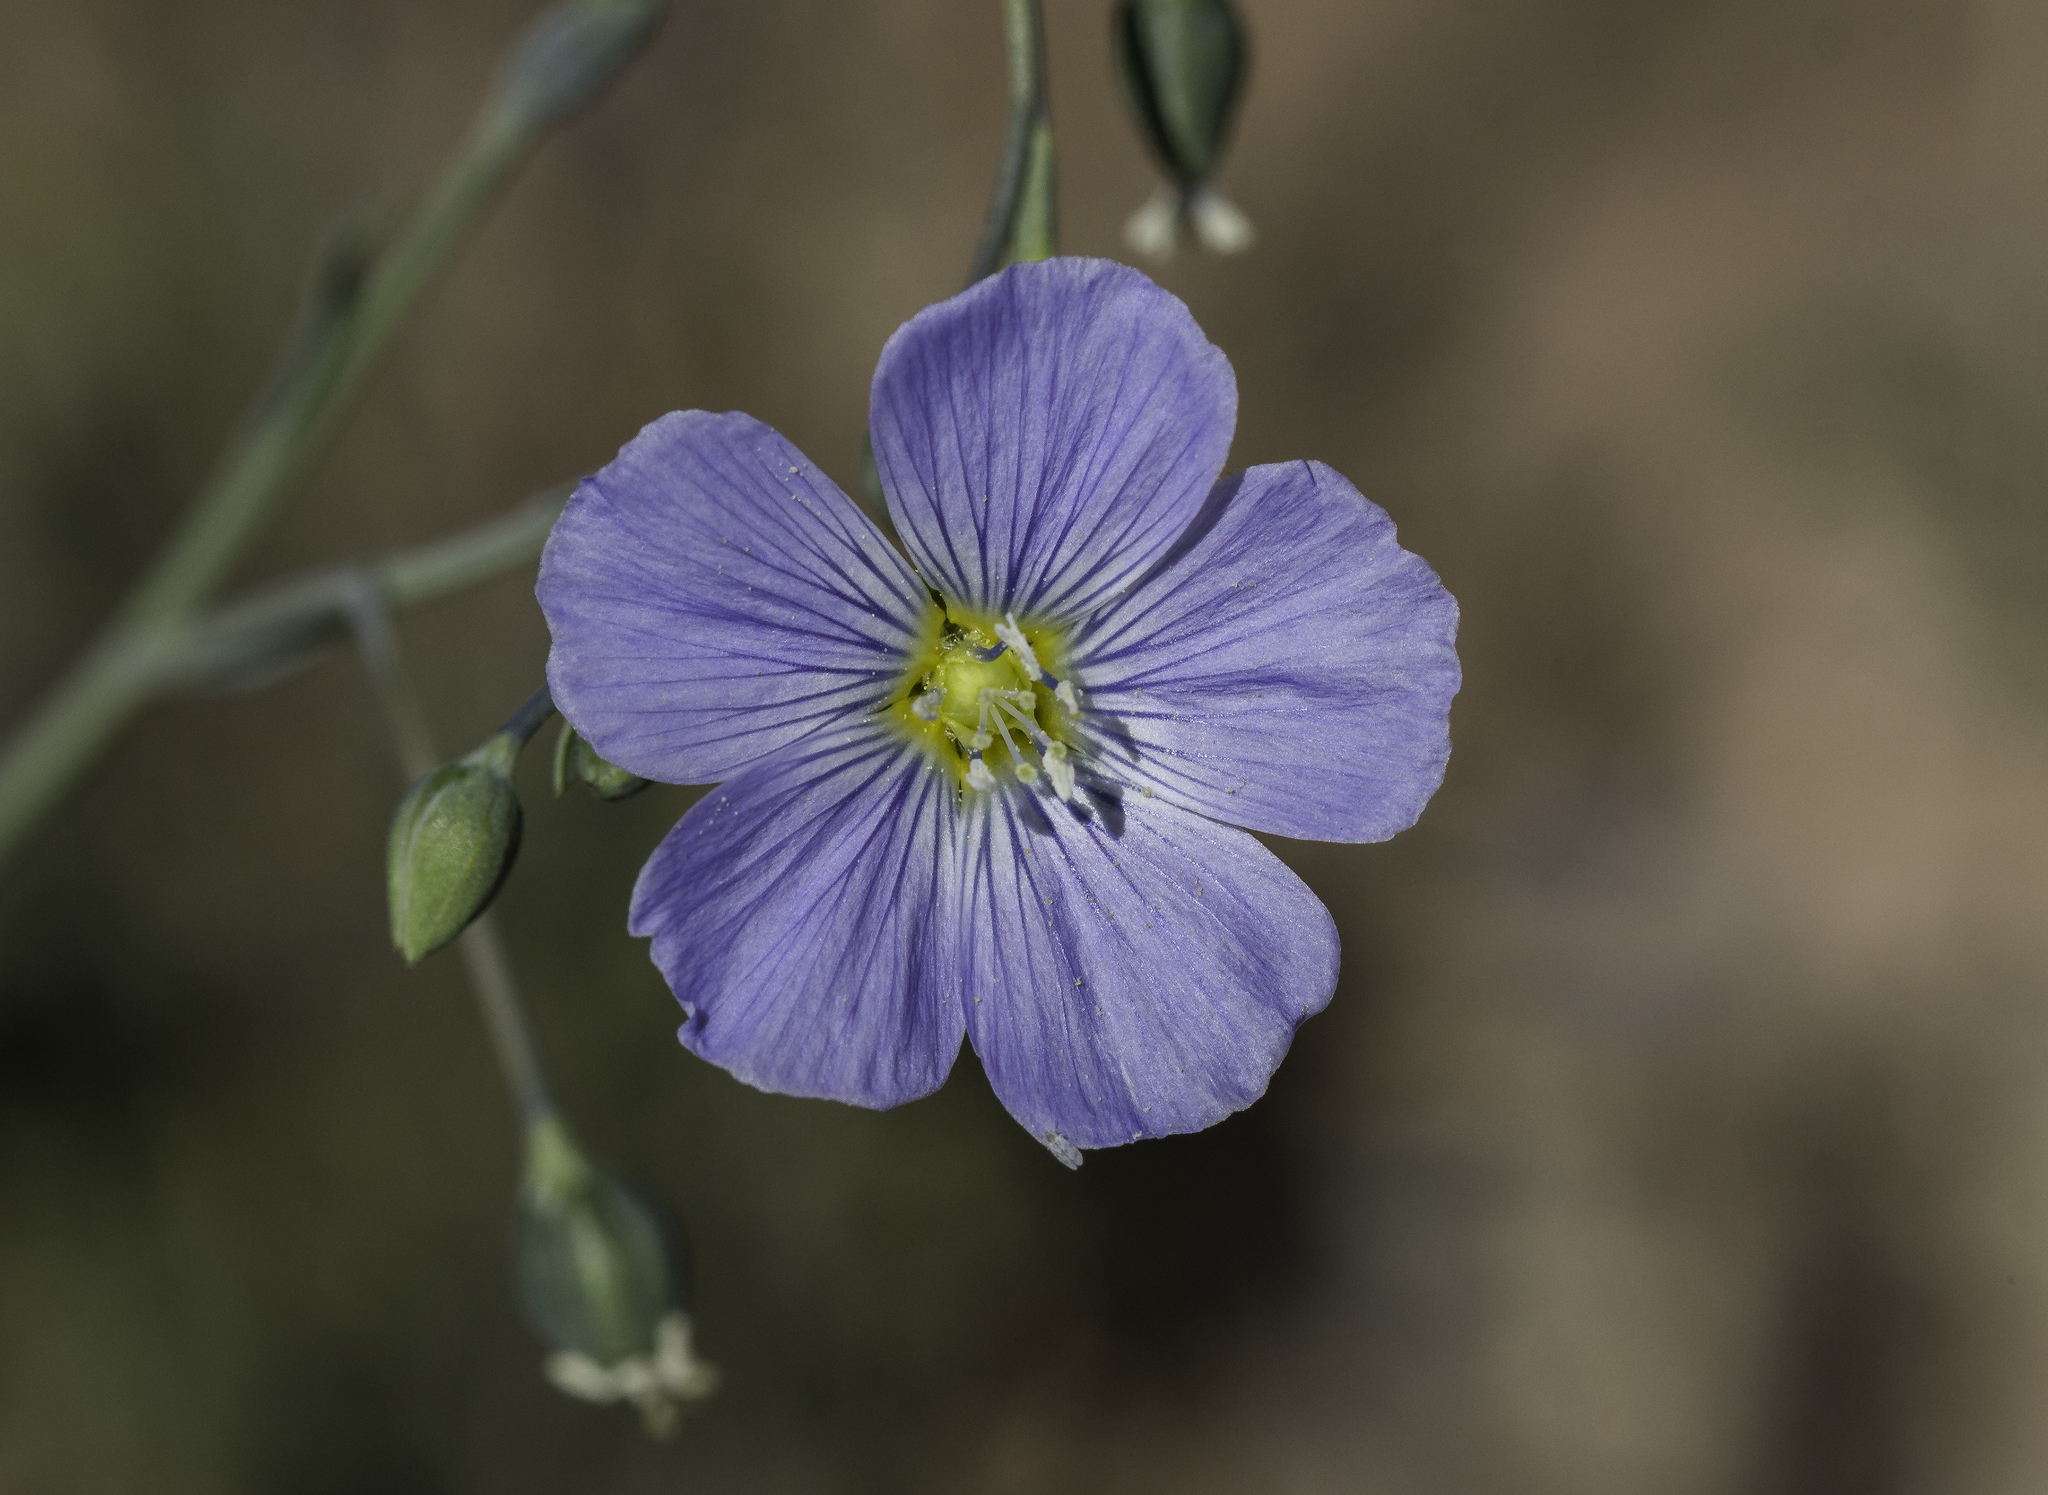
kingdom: Plantae
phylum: Tracheophyta
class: Magnoliopsida
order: Malpighiales
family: Linaceae
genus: Linum
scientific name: Linum lewisii
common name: Prairie flax
